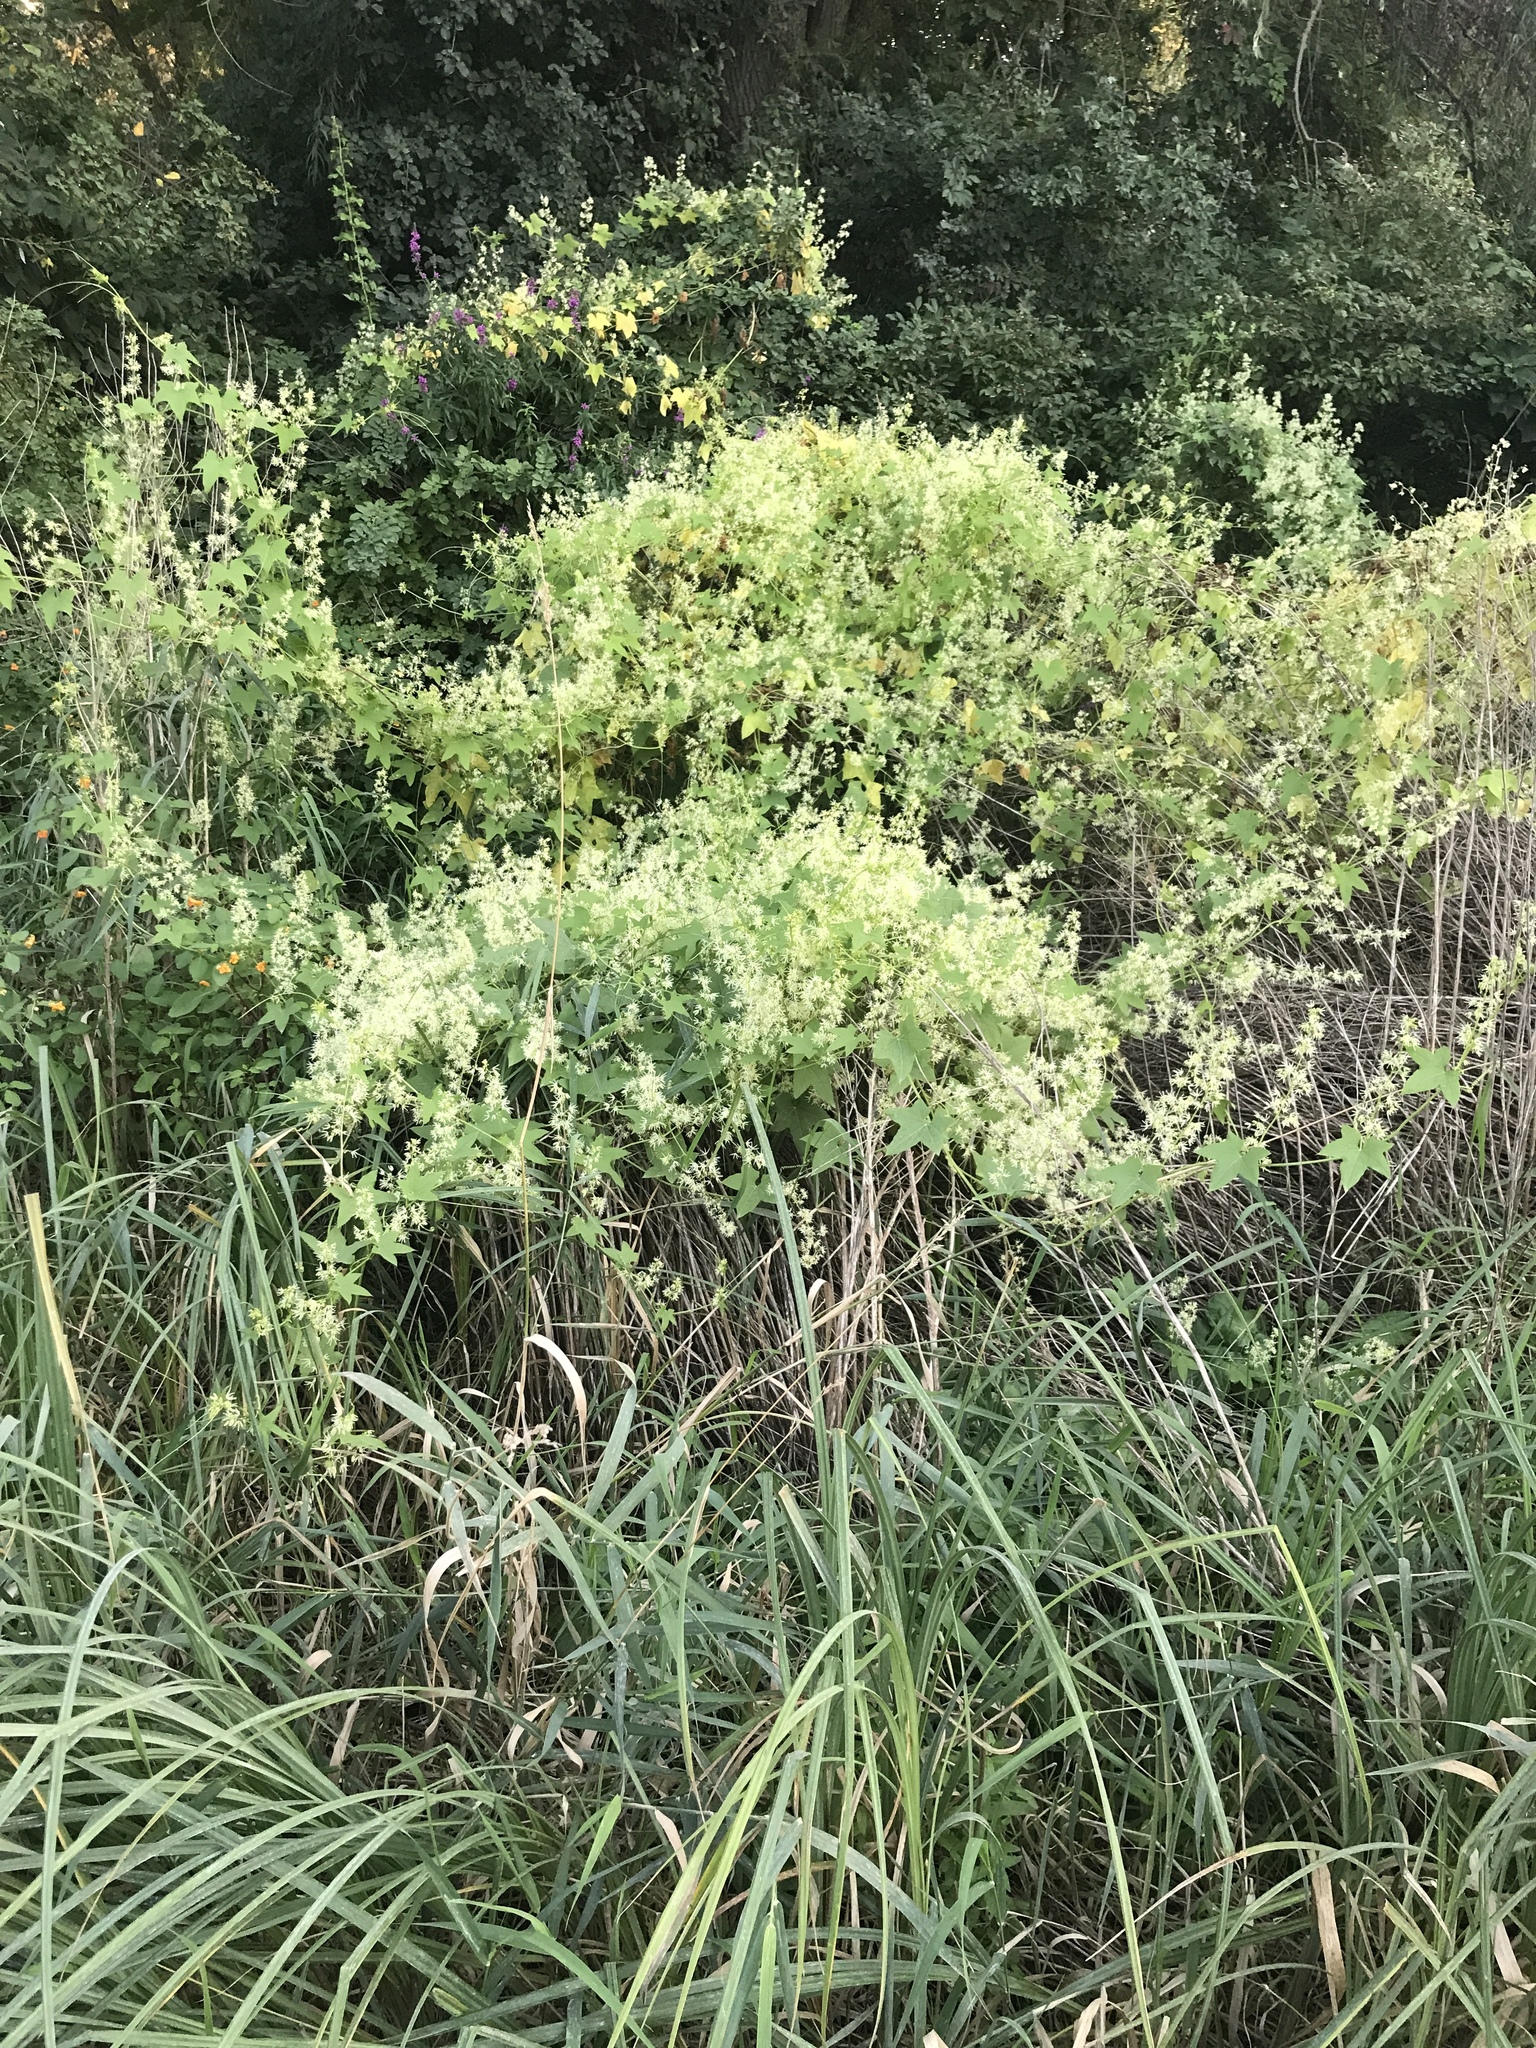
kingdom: Plantae
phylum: Tracheophyta
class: Magnoliopsida
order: Cucurbitales
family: Cucurbitaceae
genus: Echinocystis
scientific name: Echinocystis lobata
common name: Wild cucumber
